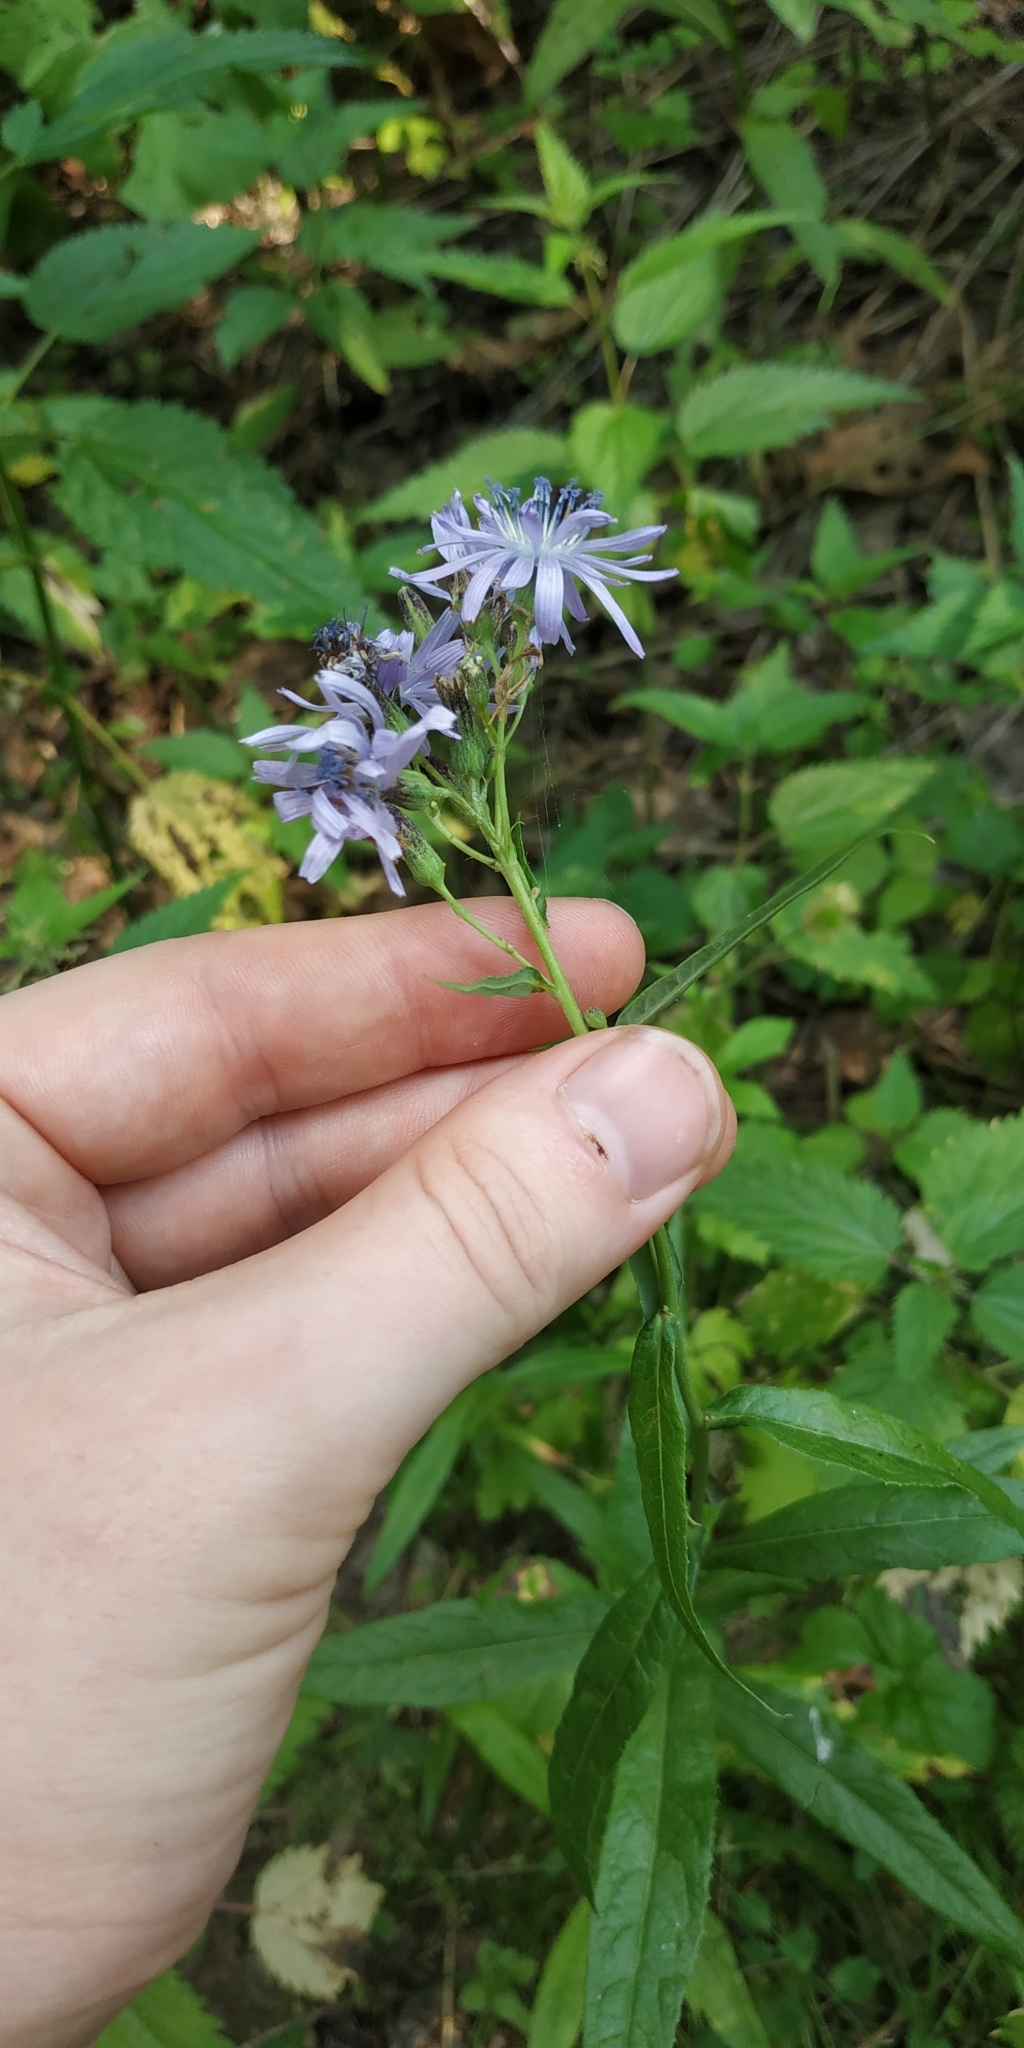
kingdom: Plantae
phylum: Tracheophyta
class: Magnoliopsida
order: Asterales
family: Asteraceae
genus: Lactuca
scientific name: Lactuca sibirica
